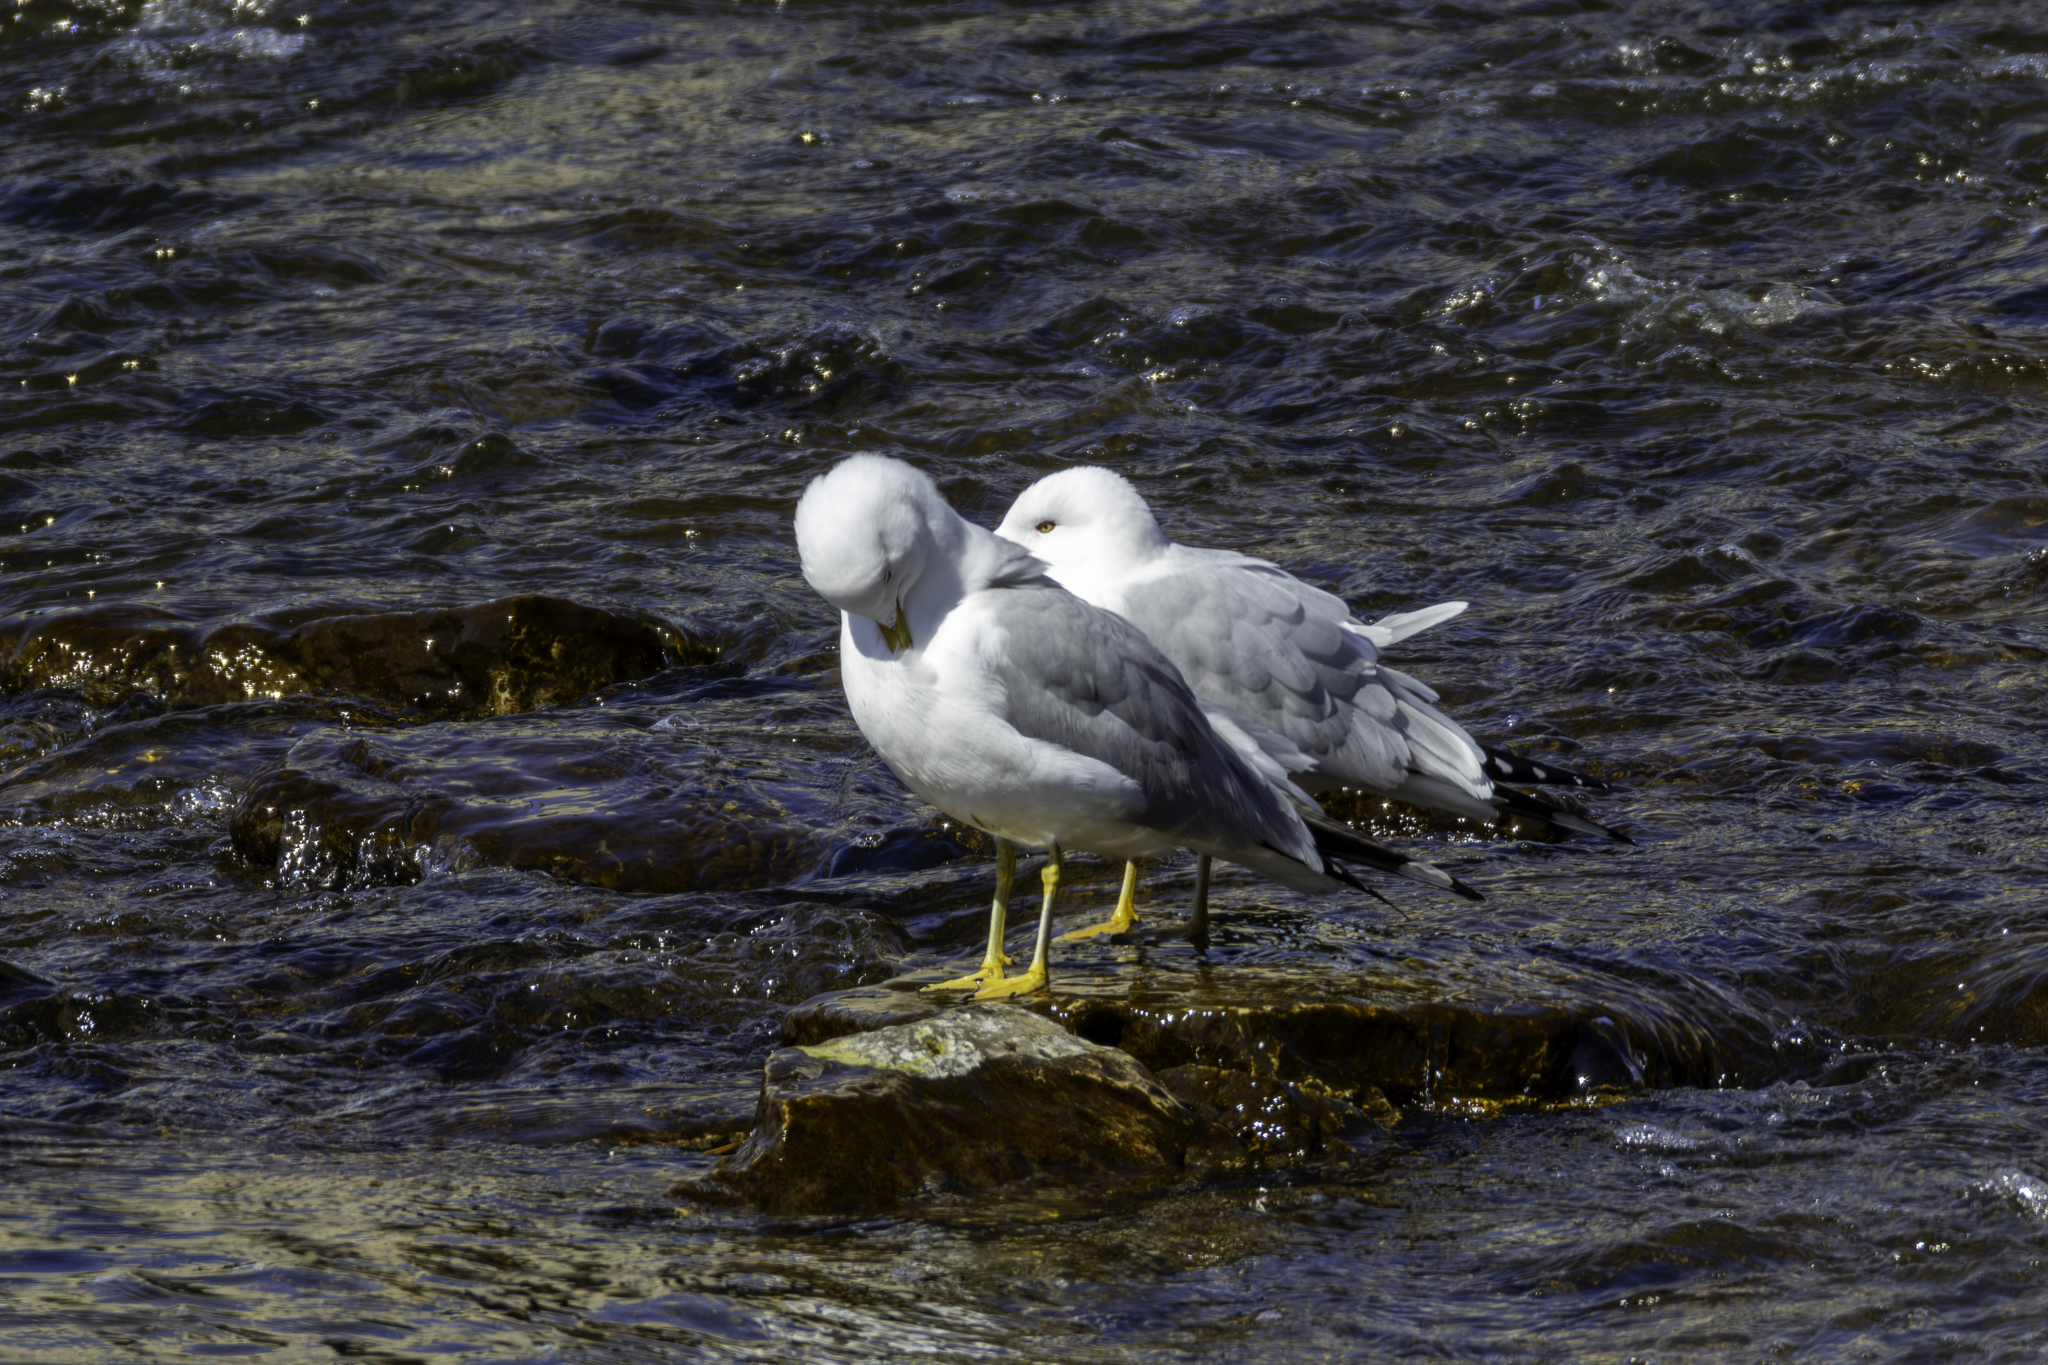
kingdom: Animalia
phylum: Chordata
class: Aves
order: Charadriiformes
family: Laridae
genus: Larus
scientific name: Larus delawarensis
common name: Ring-billed gull
